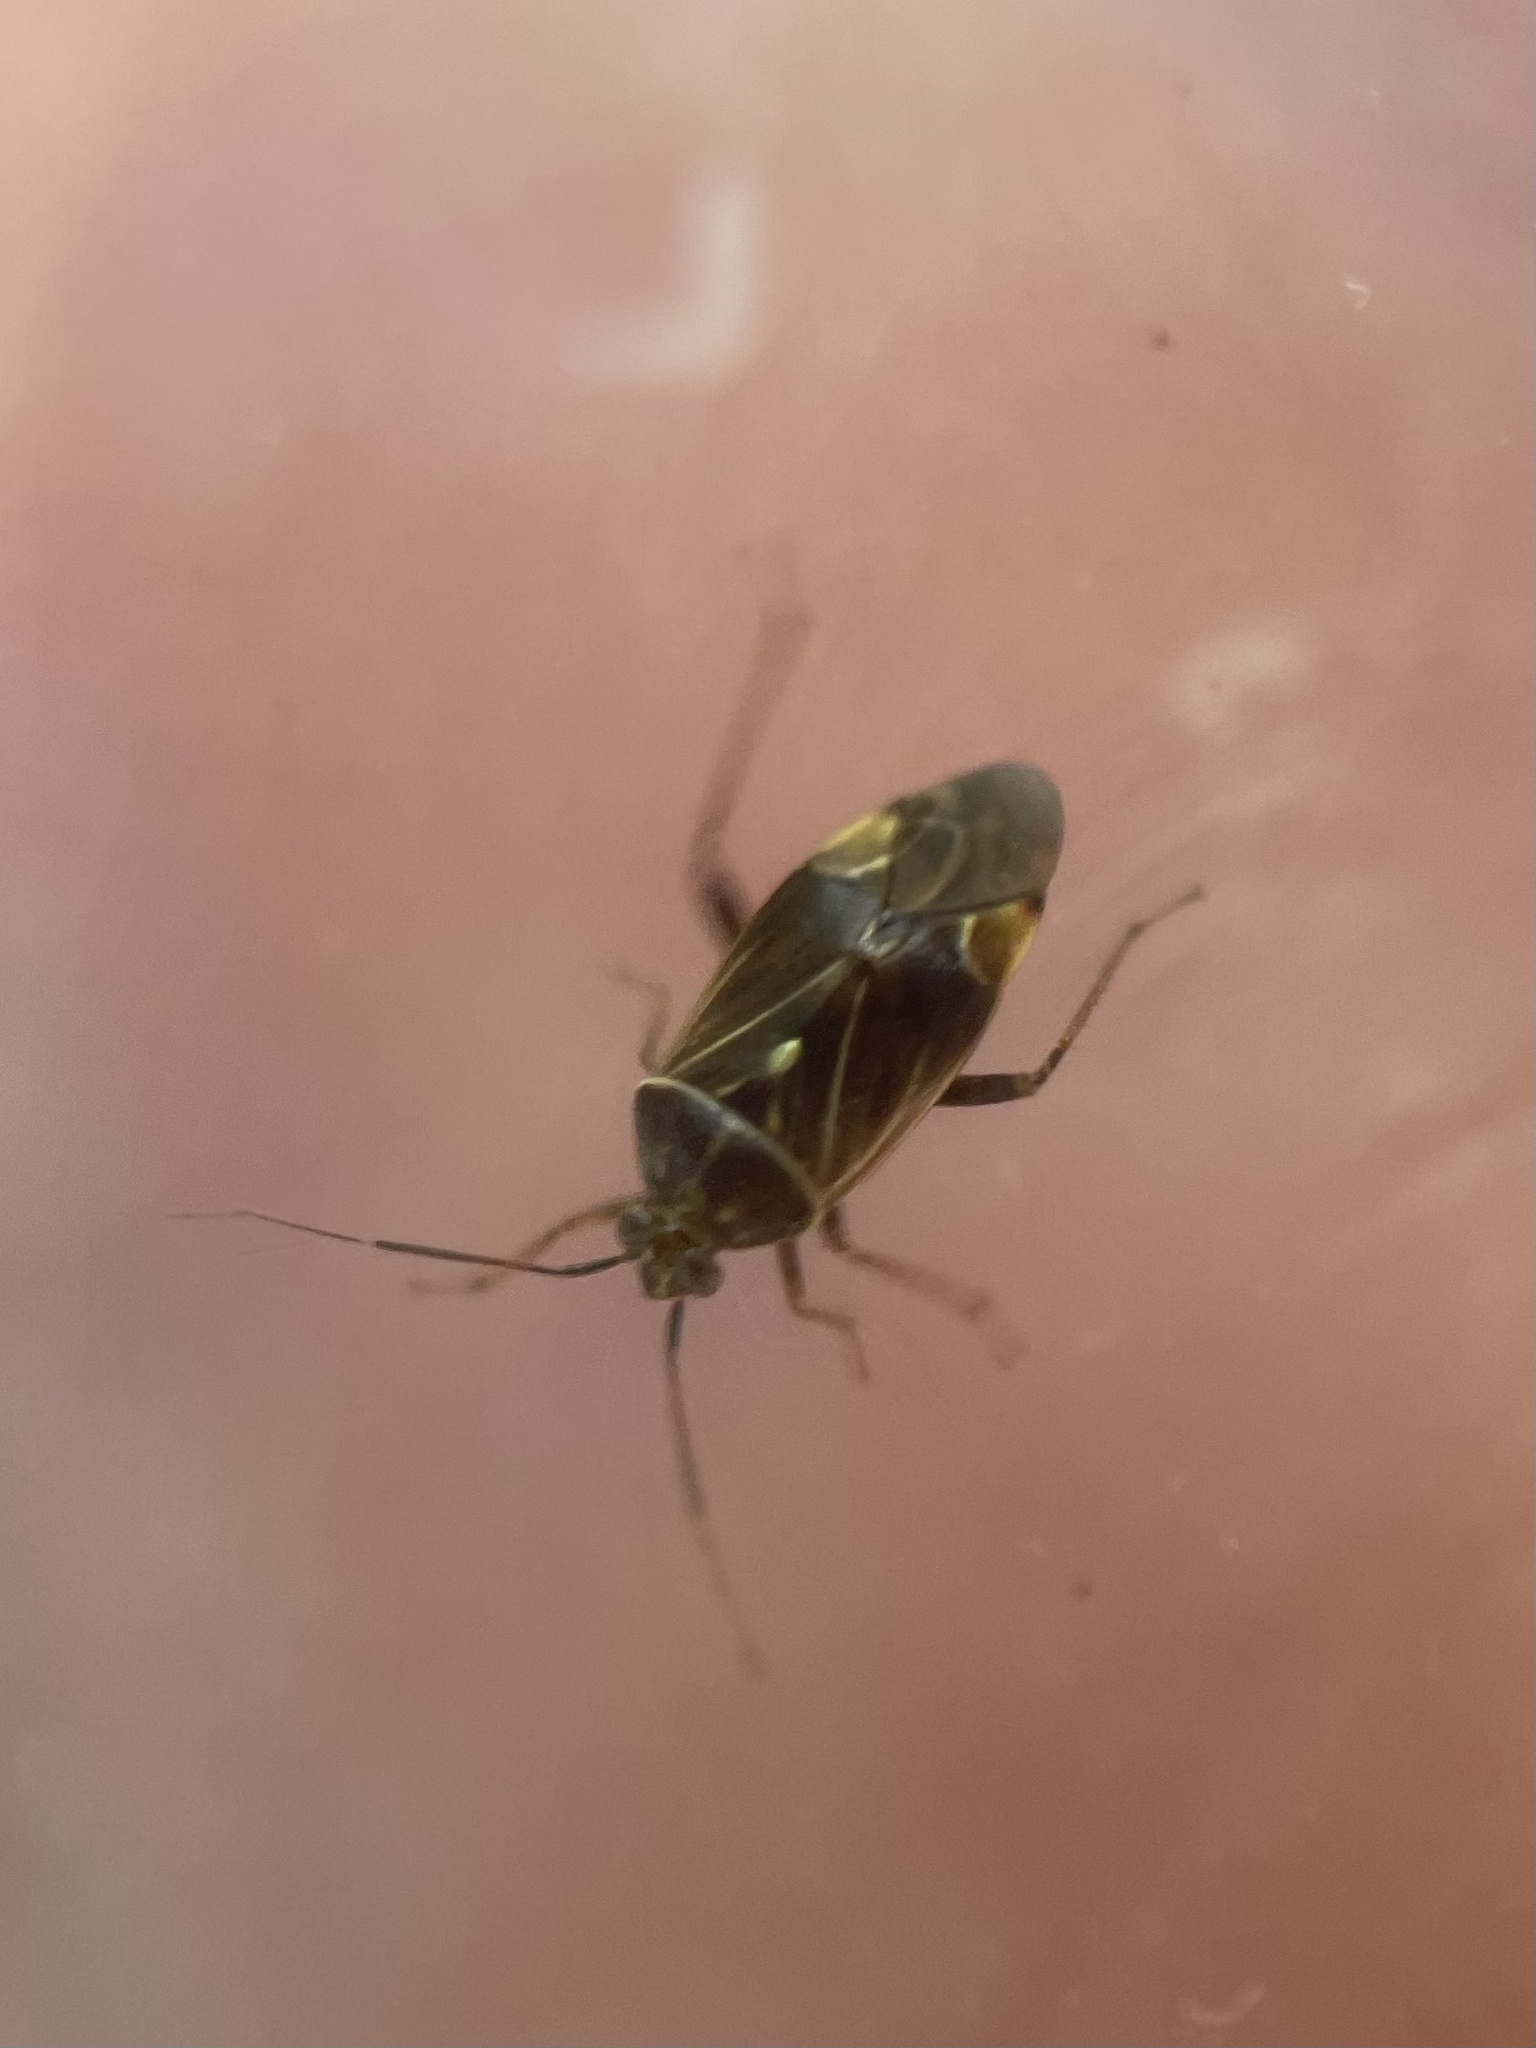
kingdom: Animalia
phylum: Arthropoda
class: Insecta
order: Hemiptera
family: Miridae
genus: Lygus
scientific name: Lygus lineolaris
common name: North american tarnished plant bug
